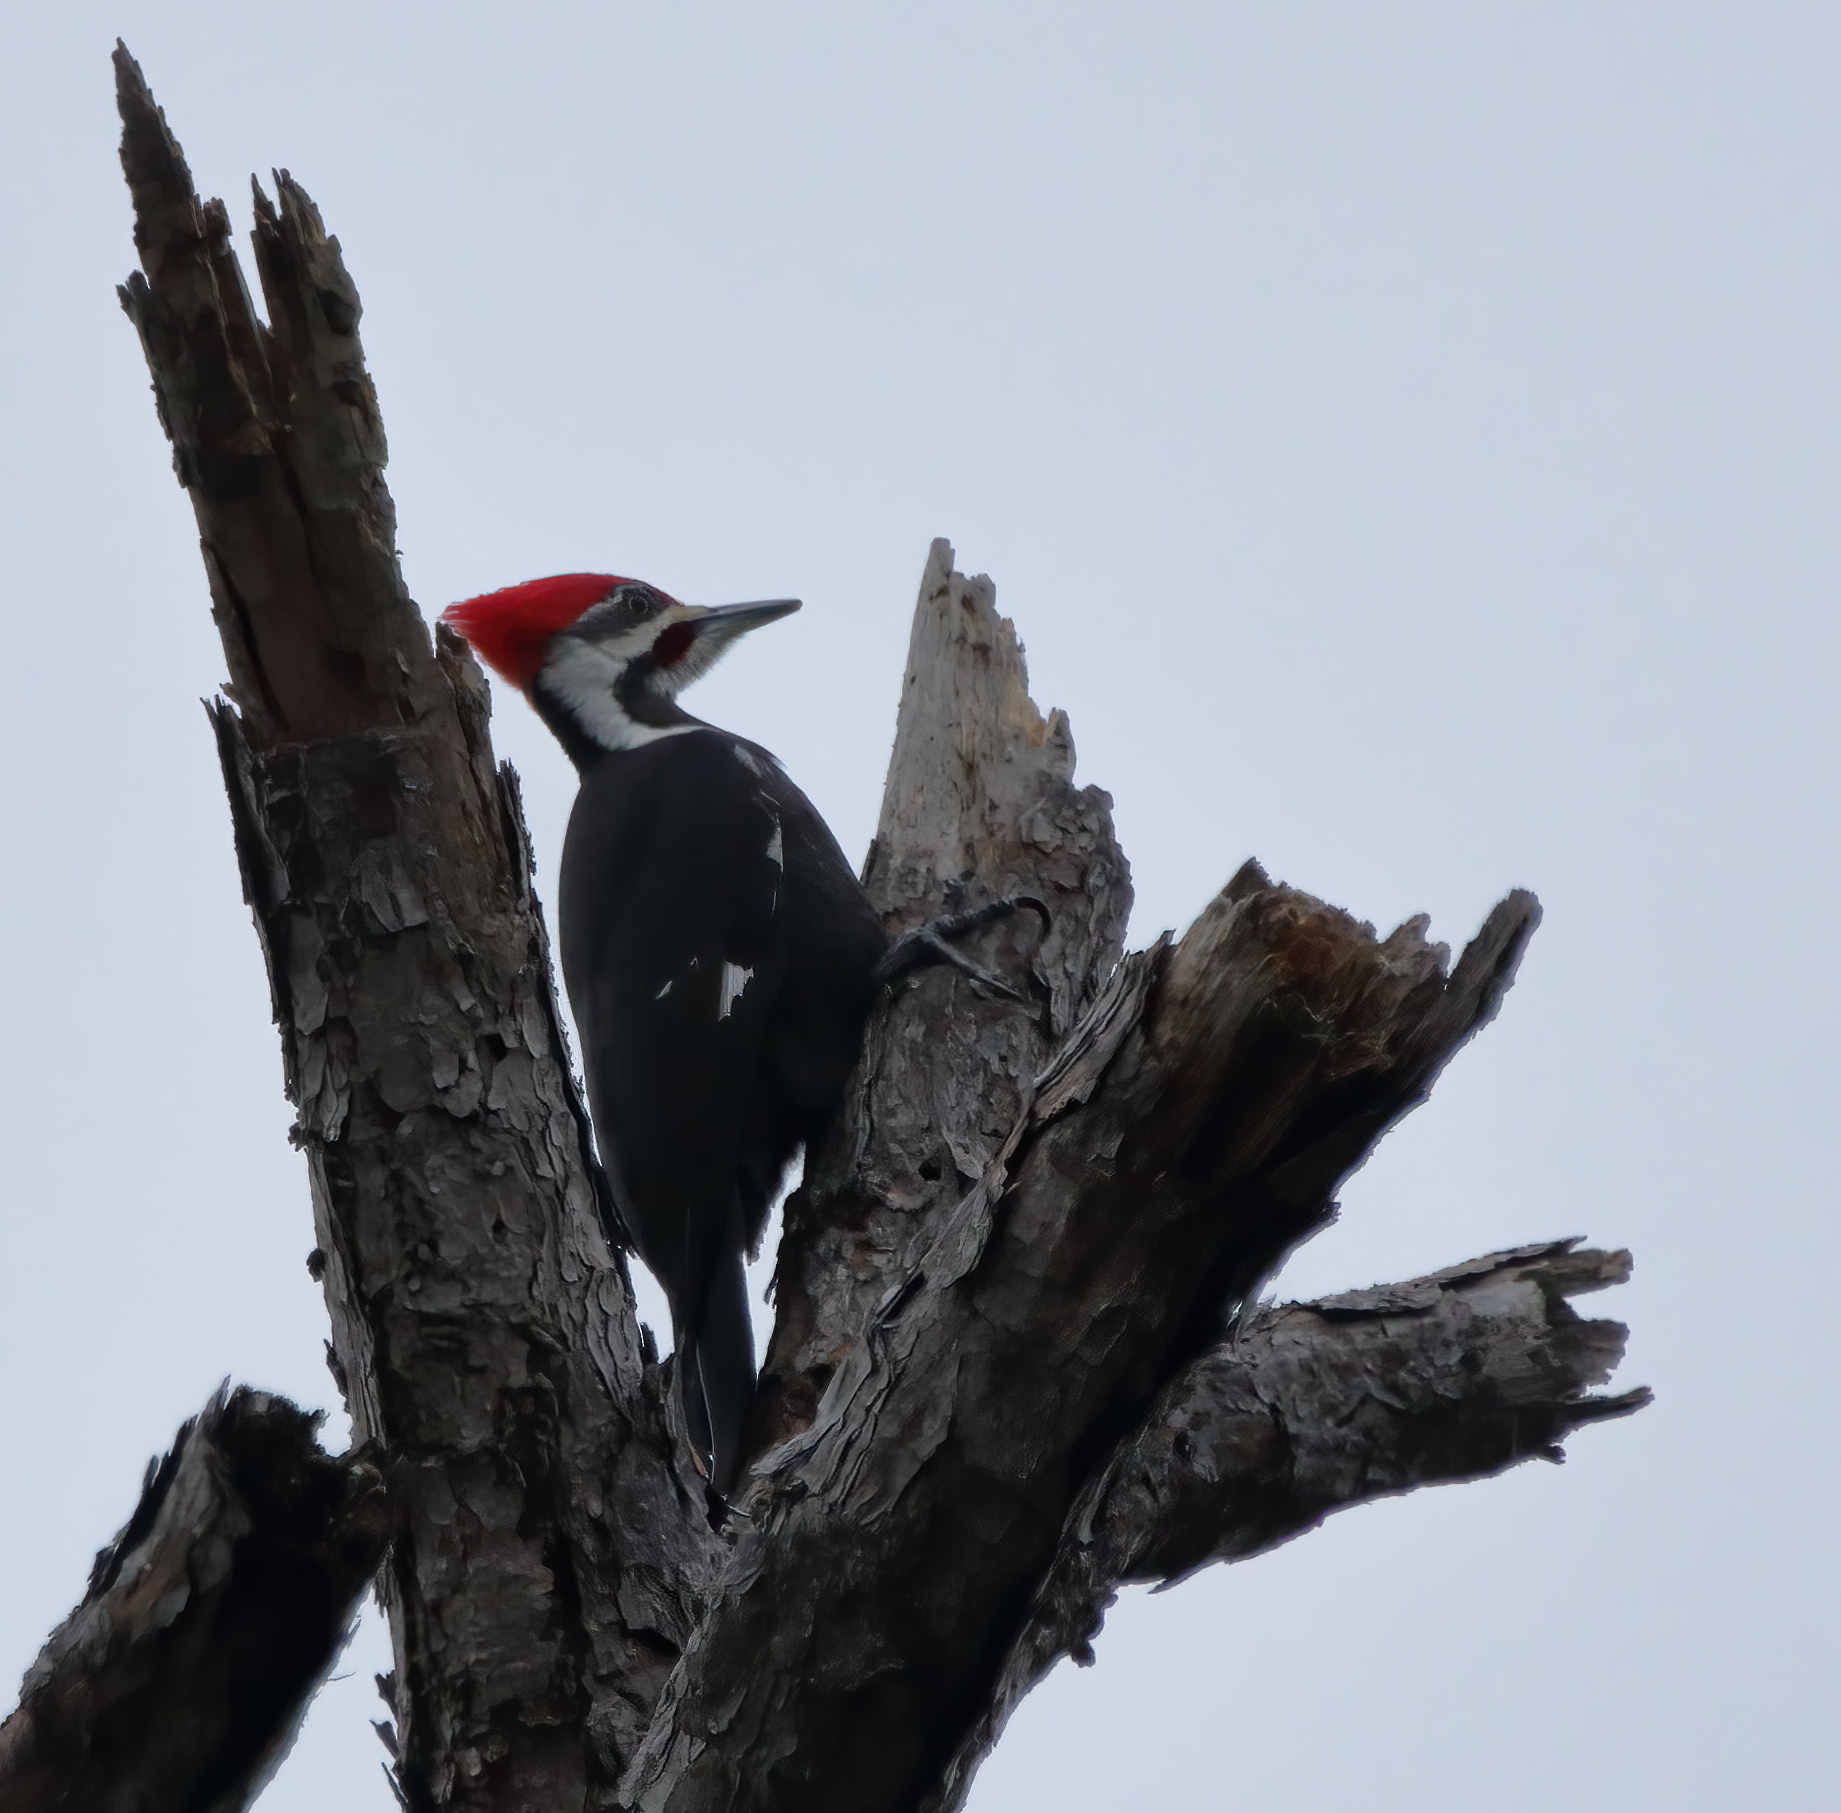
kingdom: Animalia
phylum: Chordata
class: Aves
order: Piciformes
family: Picidae
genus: Dryocopus
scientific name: Dryocopus pileatus
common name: Pileated woodpecker
